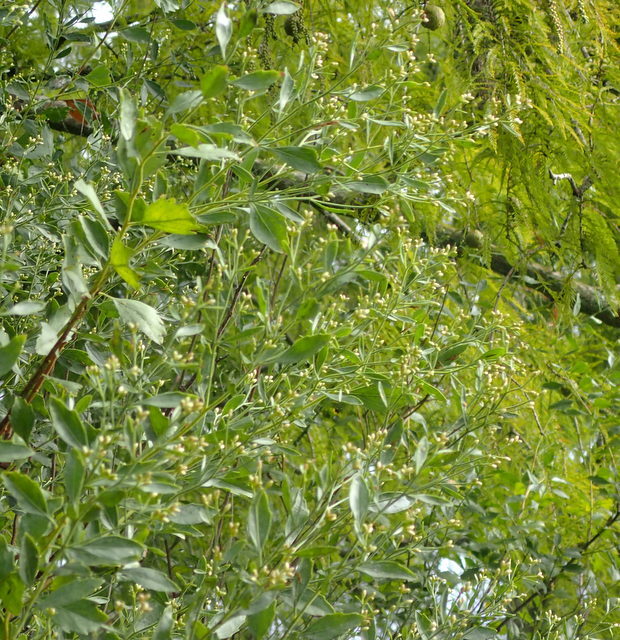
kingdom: Plantae
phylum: Tracheophyta
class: Magnoliopsida
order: Asterales
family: Asteraceae
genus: Baccharis
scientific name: Baccharis halimifolia
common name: Eastern baccharis
